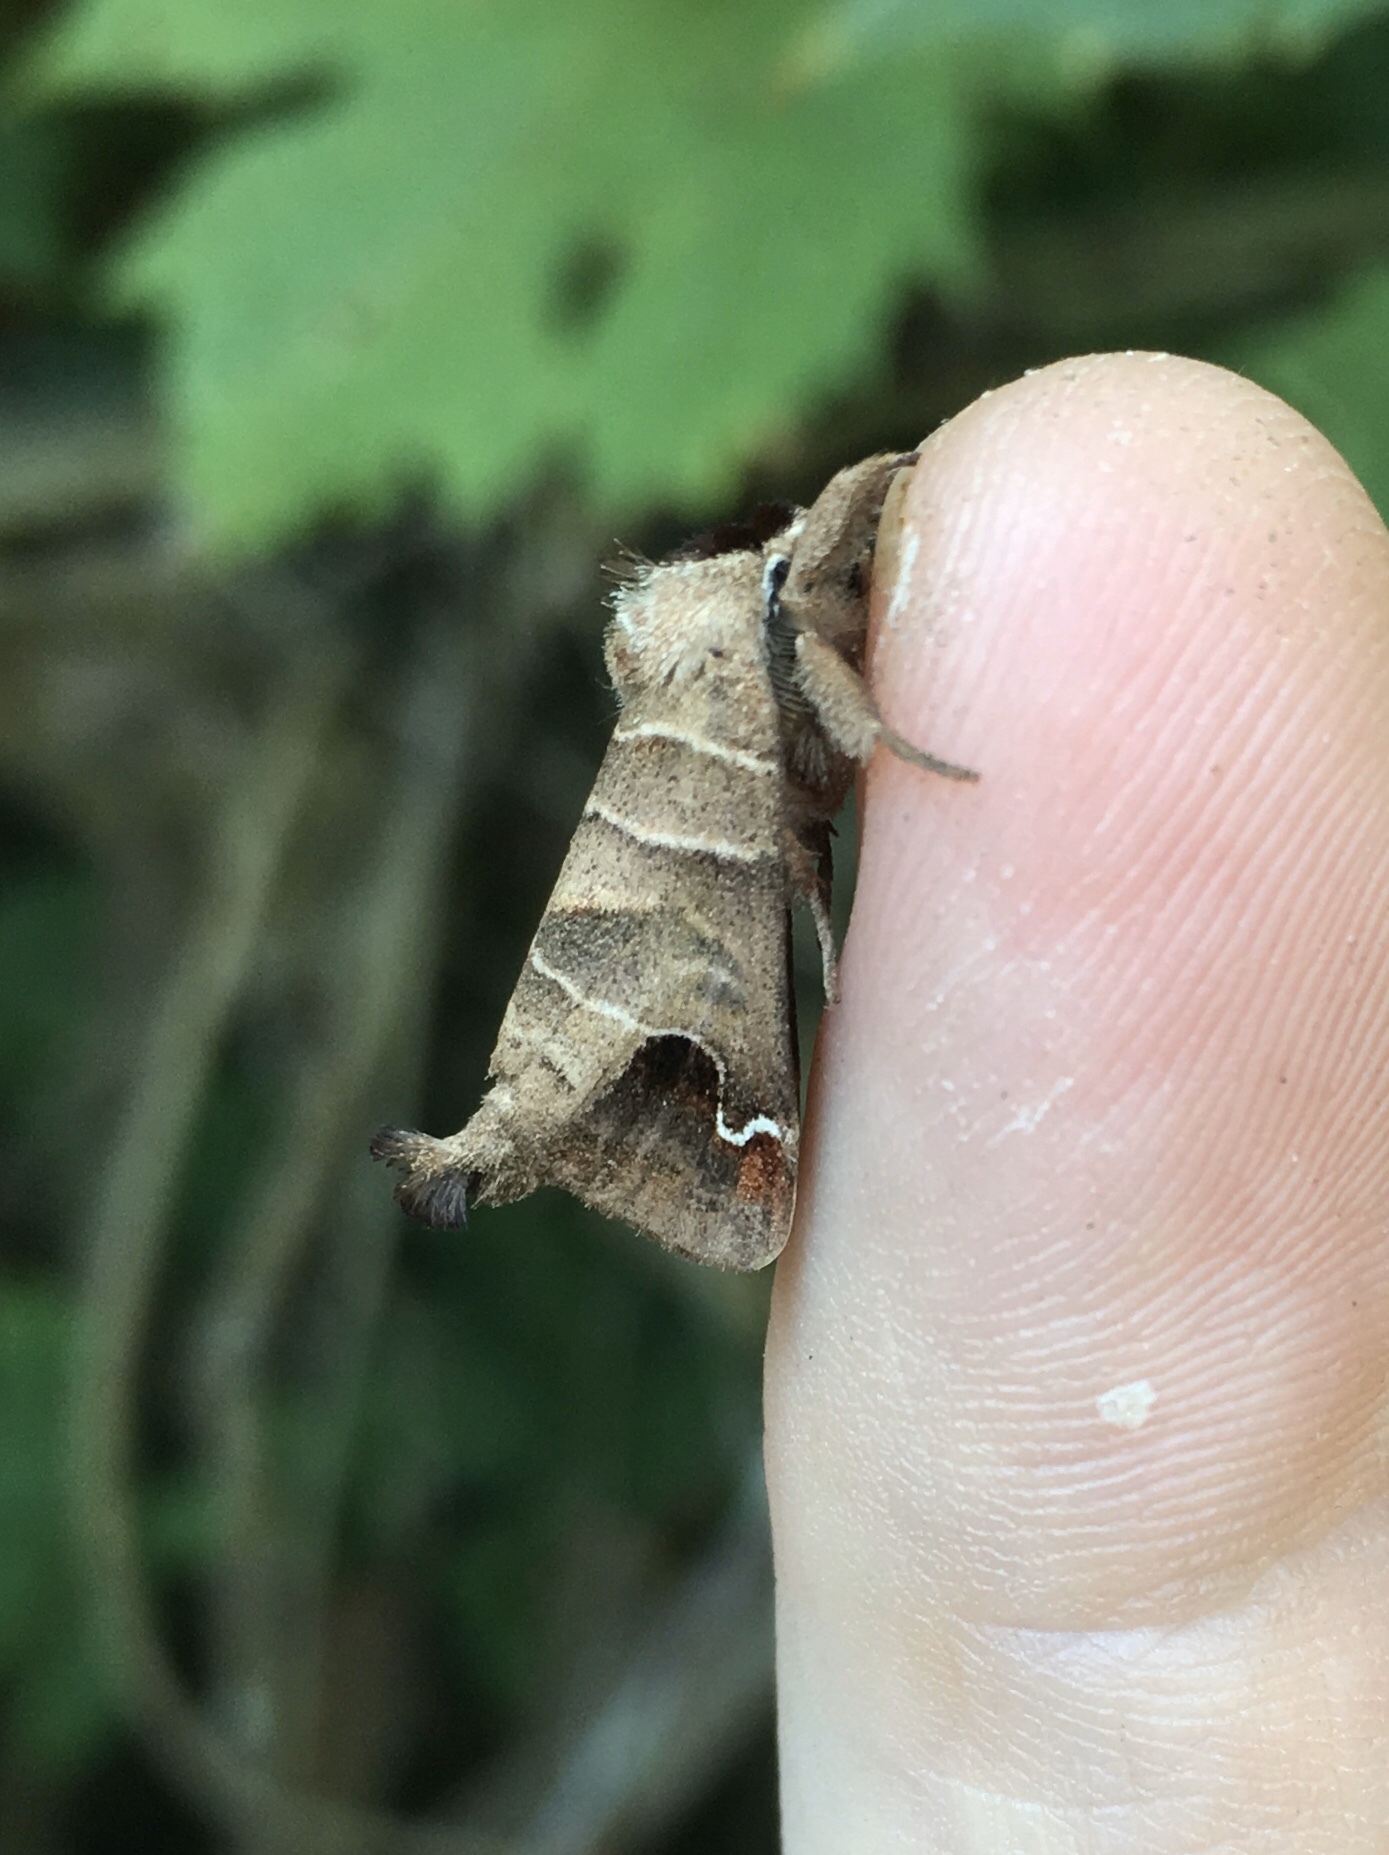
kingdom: Animalia
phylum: Arthropoda
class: Insecta
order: Lepidoptera
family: Notodontidae
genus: Clostera
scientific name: Clostera albosigma
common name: Sigmoid prominent
